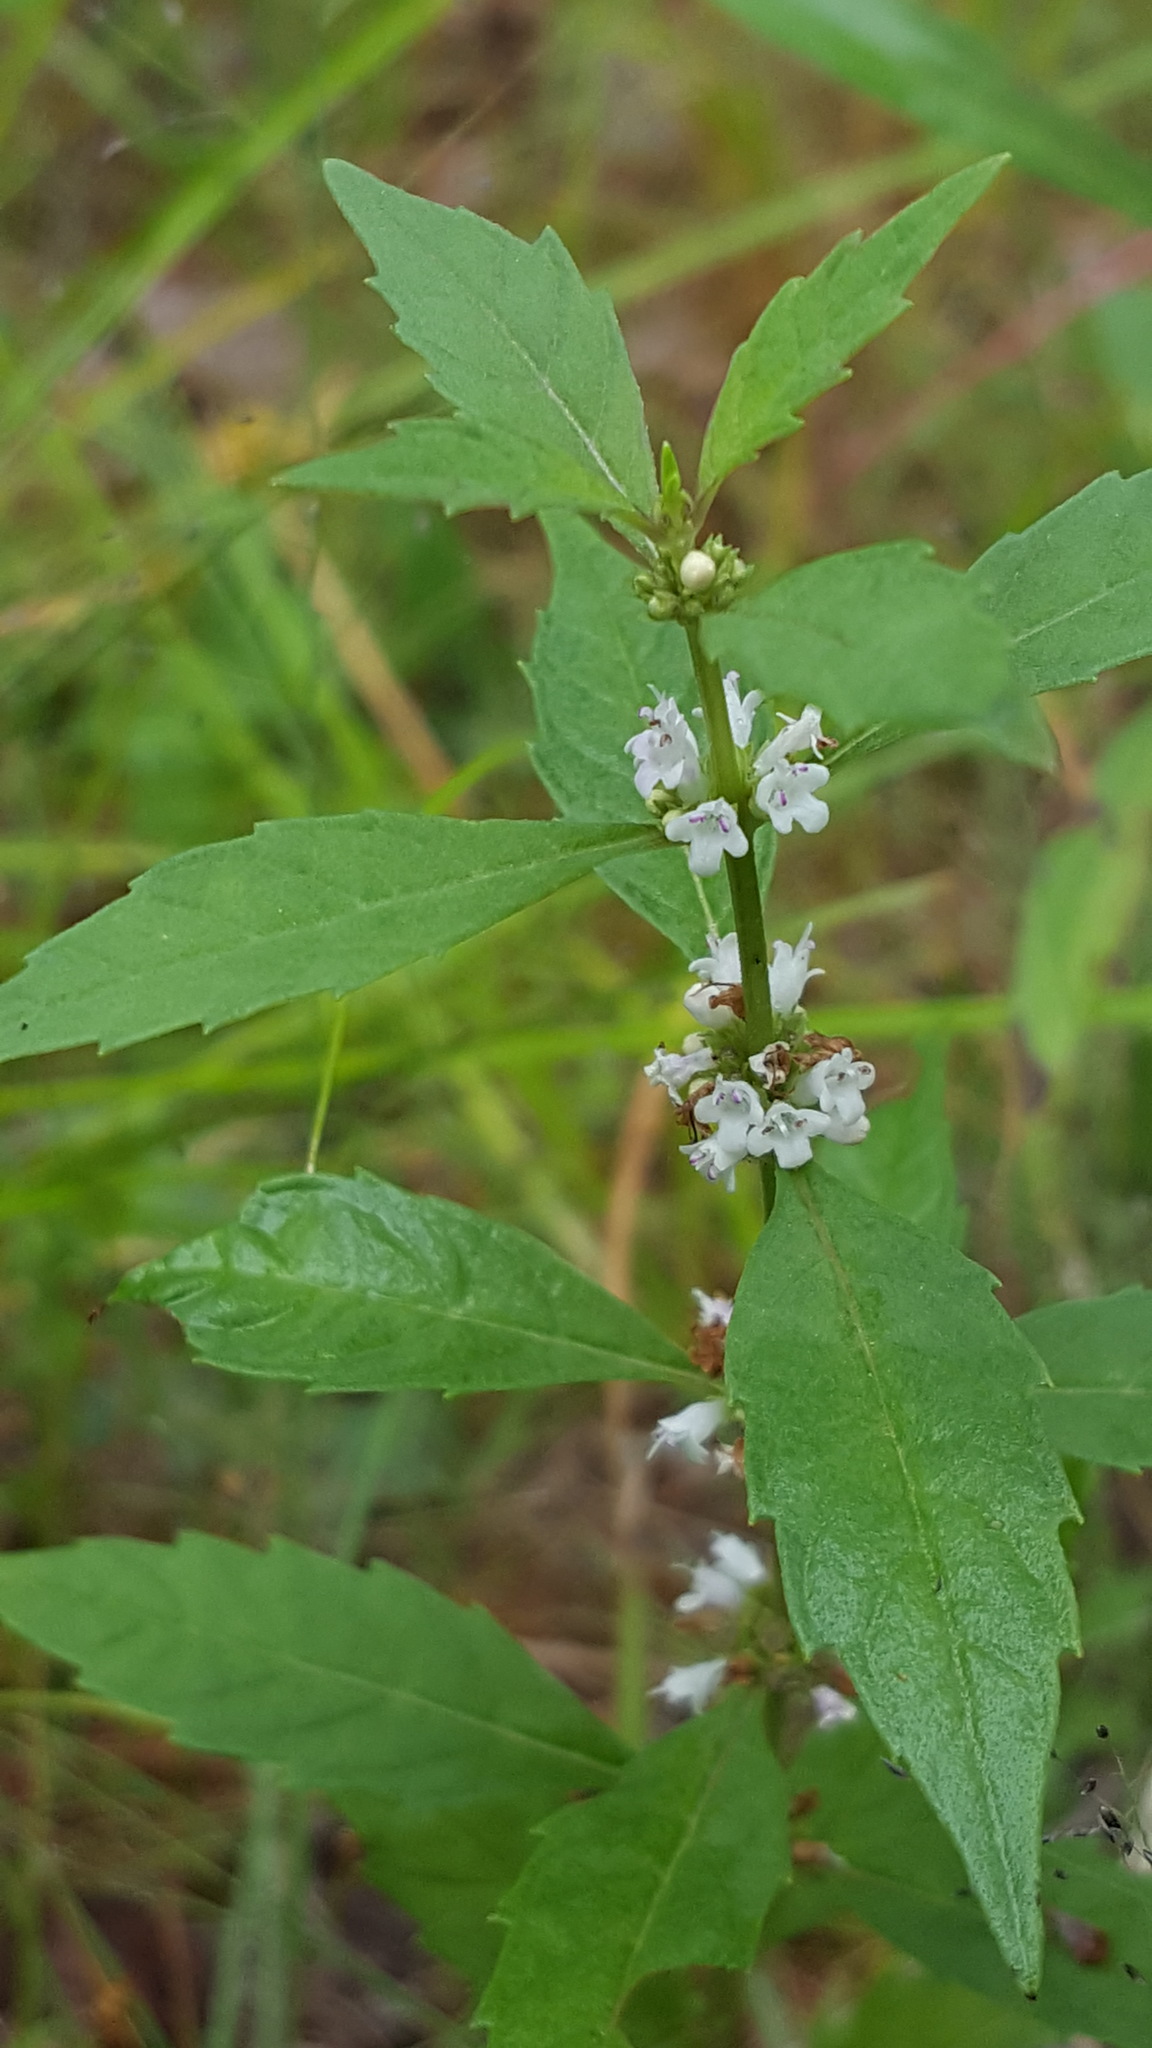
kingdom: Plantae
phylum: Tracheophyta
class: Magnoliopsida
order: Lamiales
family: Lamiaceae
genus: Lycopus
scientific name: Lycopus uniflorus
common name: Northern bugleweed
